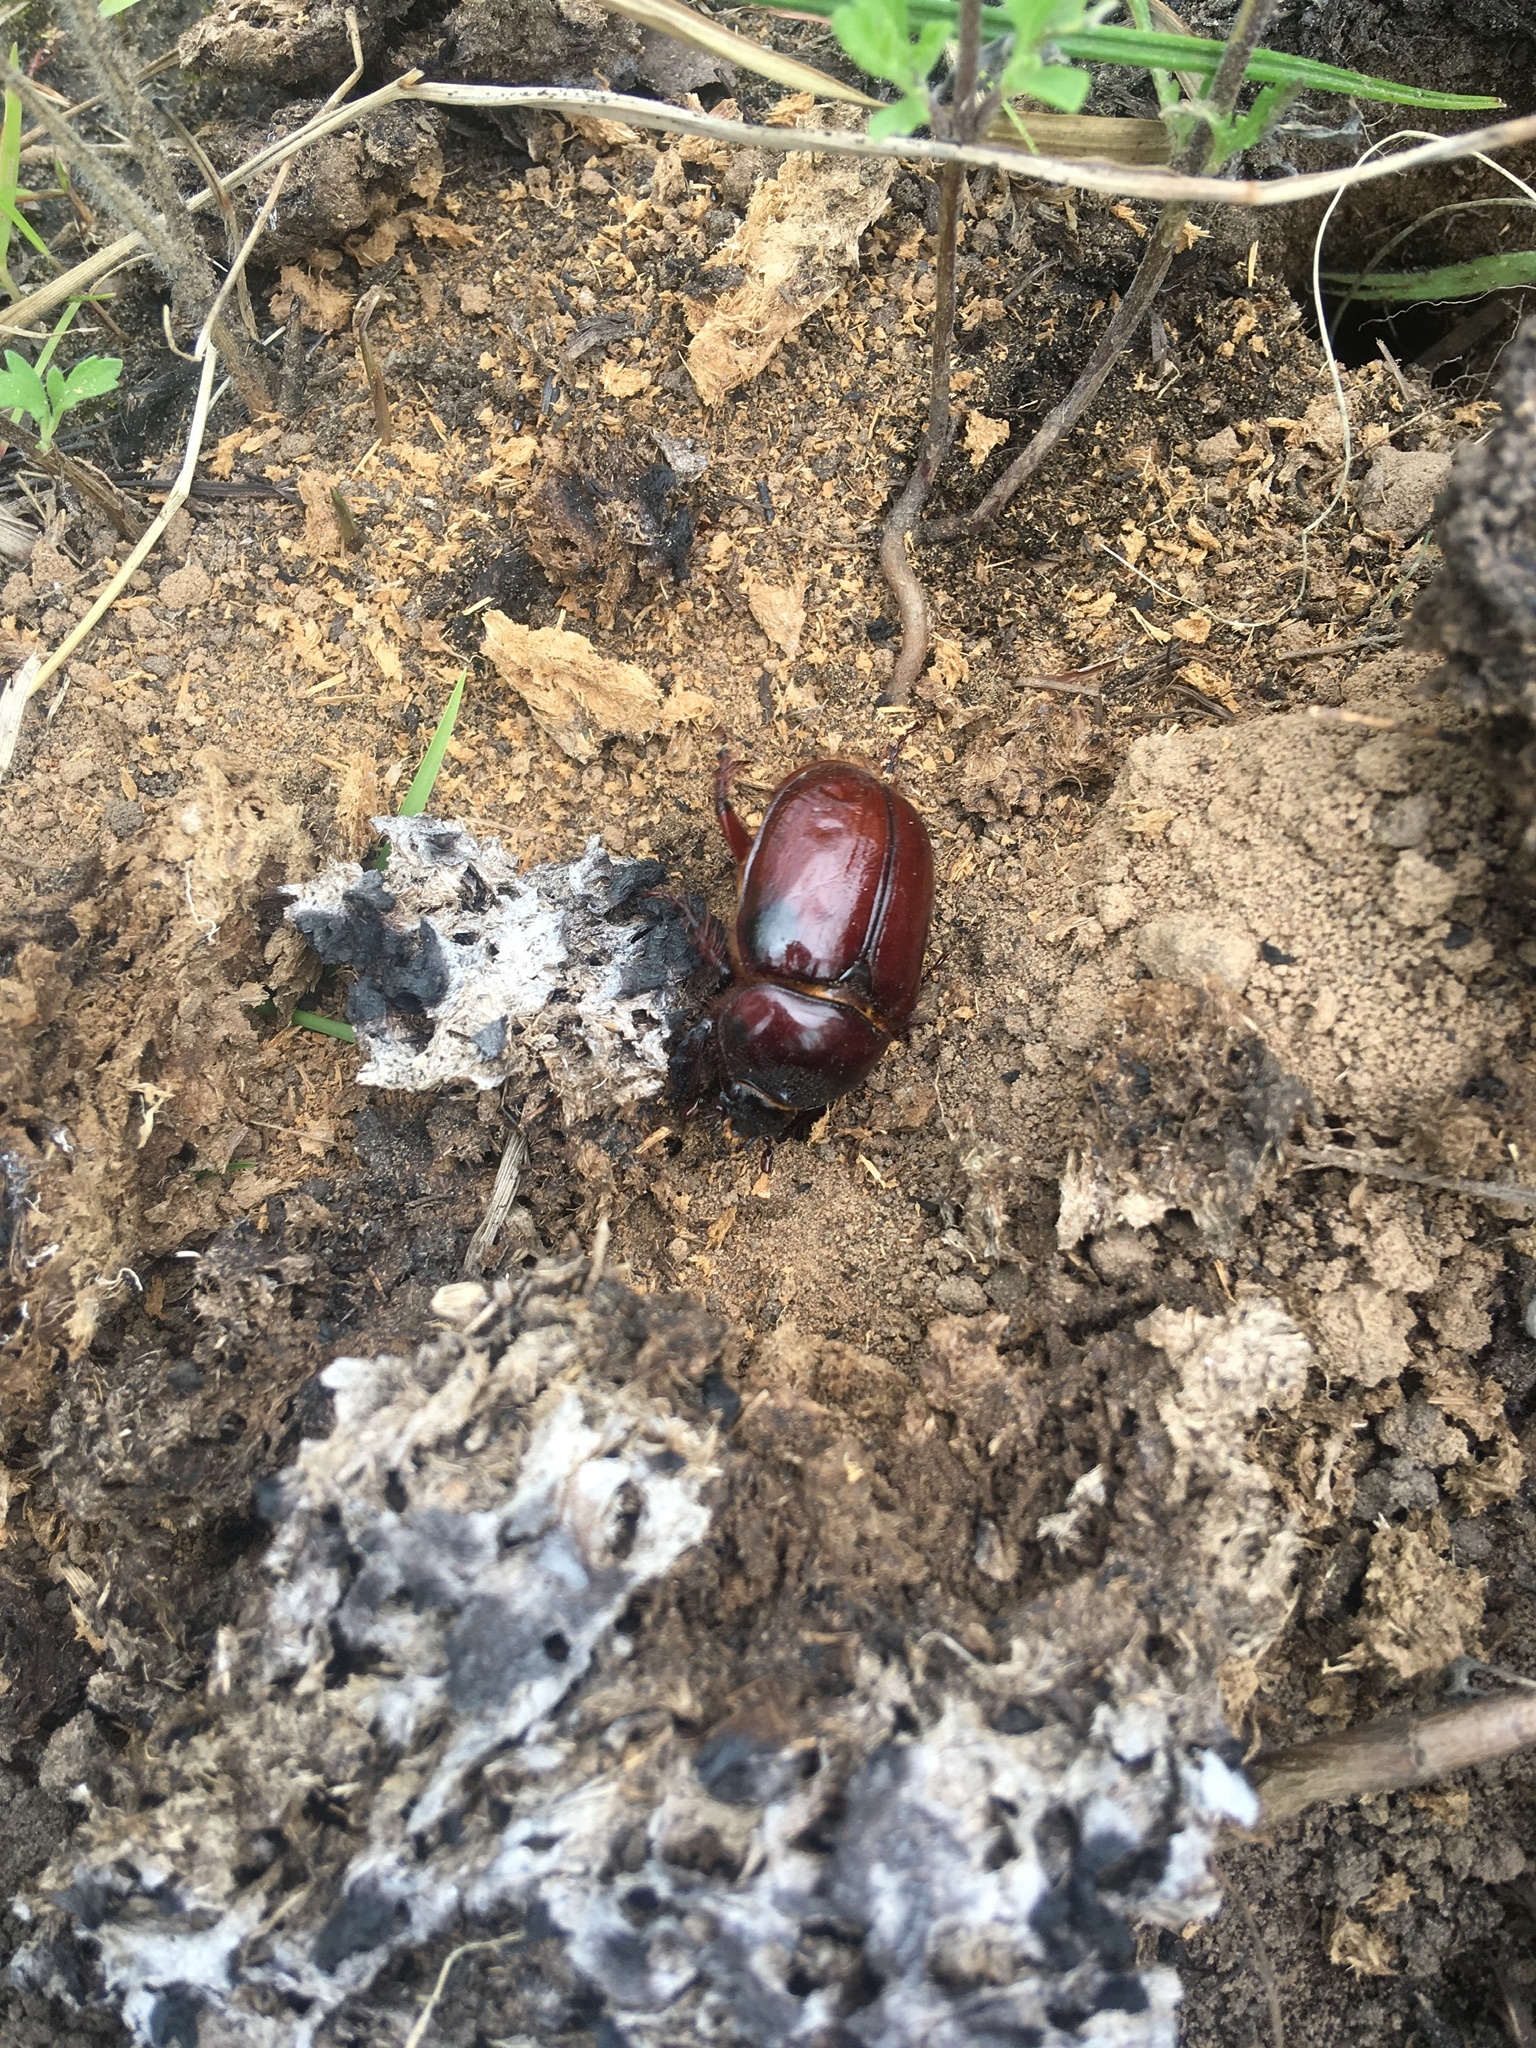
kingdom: Animalia
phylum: Arthropoda
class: Insecta
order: Coleoptera
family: Scarabaeidae
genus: Strategus
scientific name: Strategus mormon
